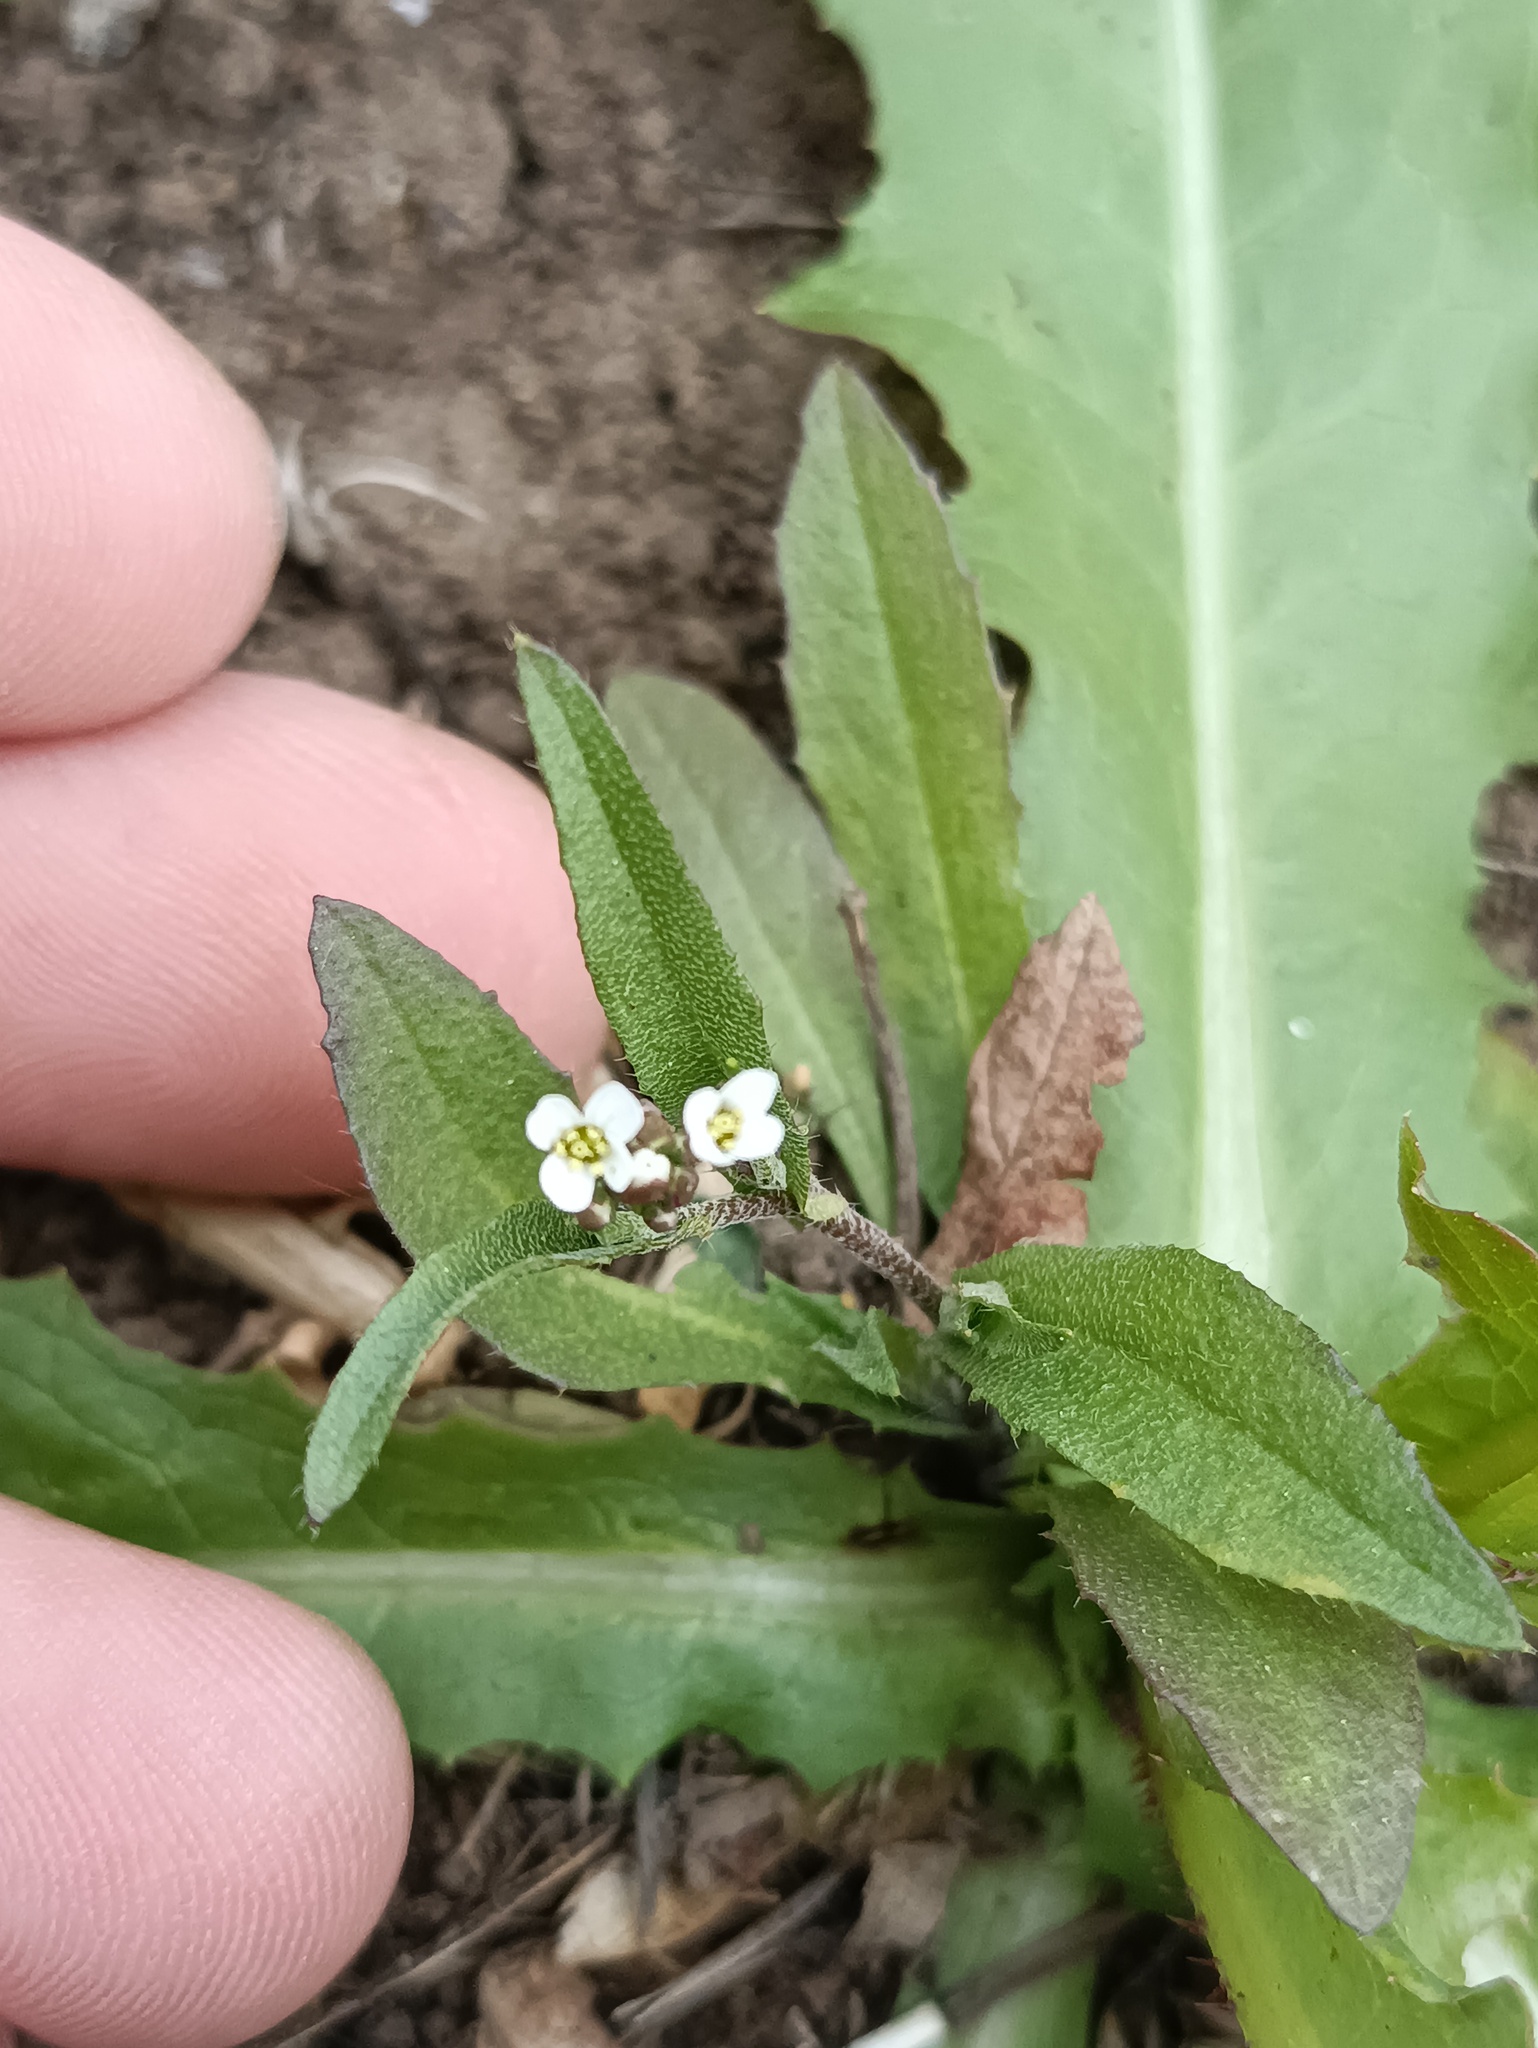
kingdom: Plantae
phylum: Tracheophyta
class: Magnoliopsida
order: Brassicales
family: Brassicaceae
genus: Capsella
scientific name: Capsella bursa-pastoris
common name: Shepherd's purse
